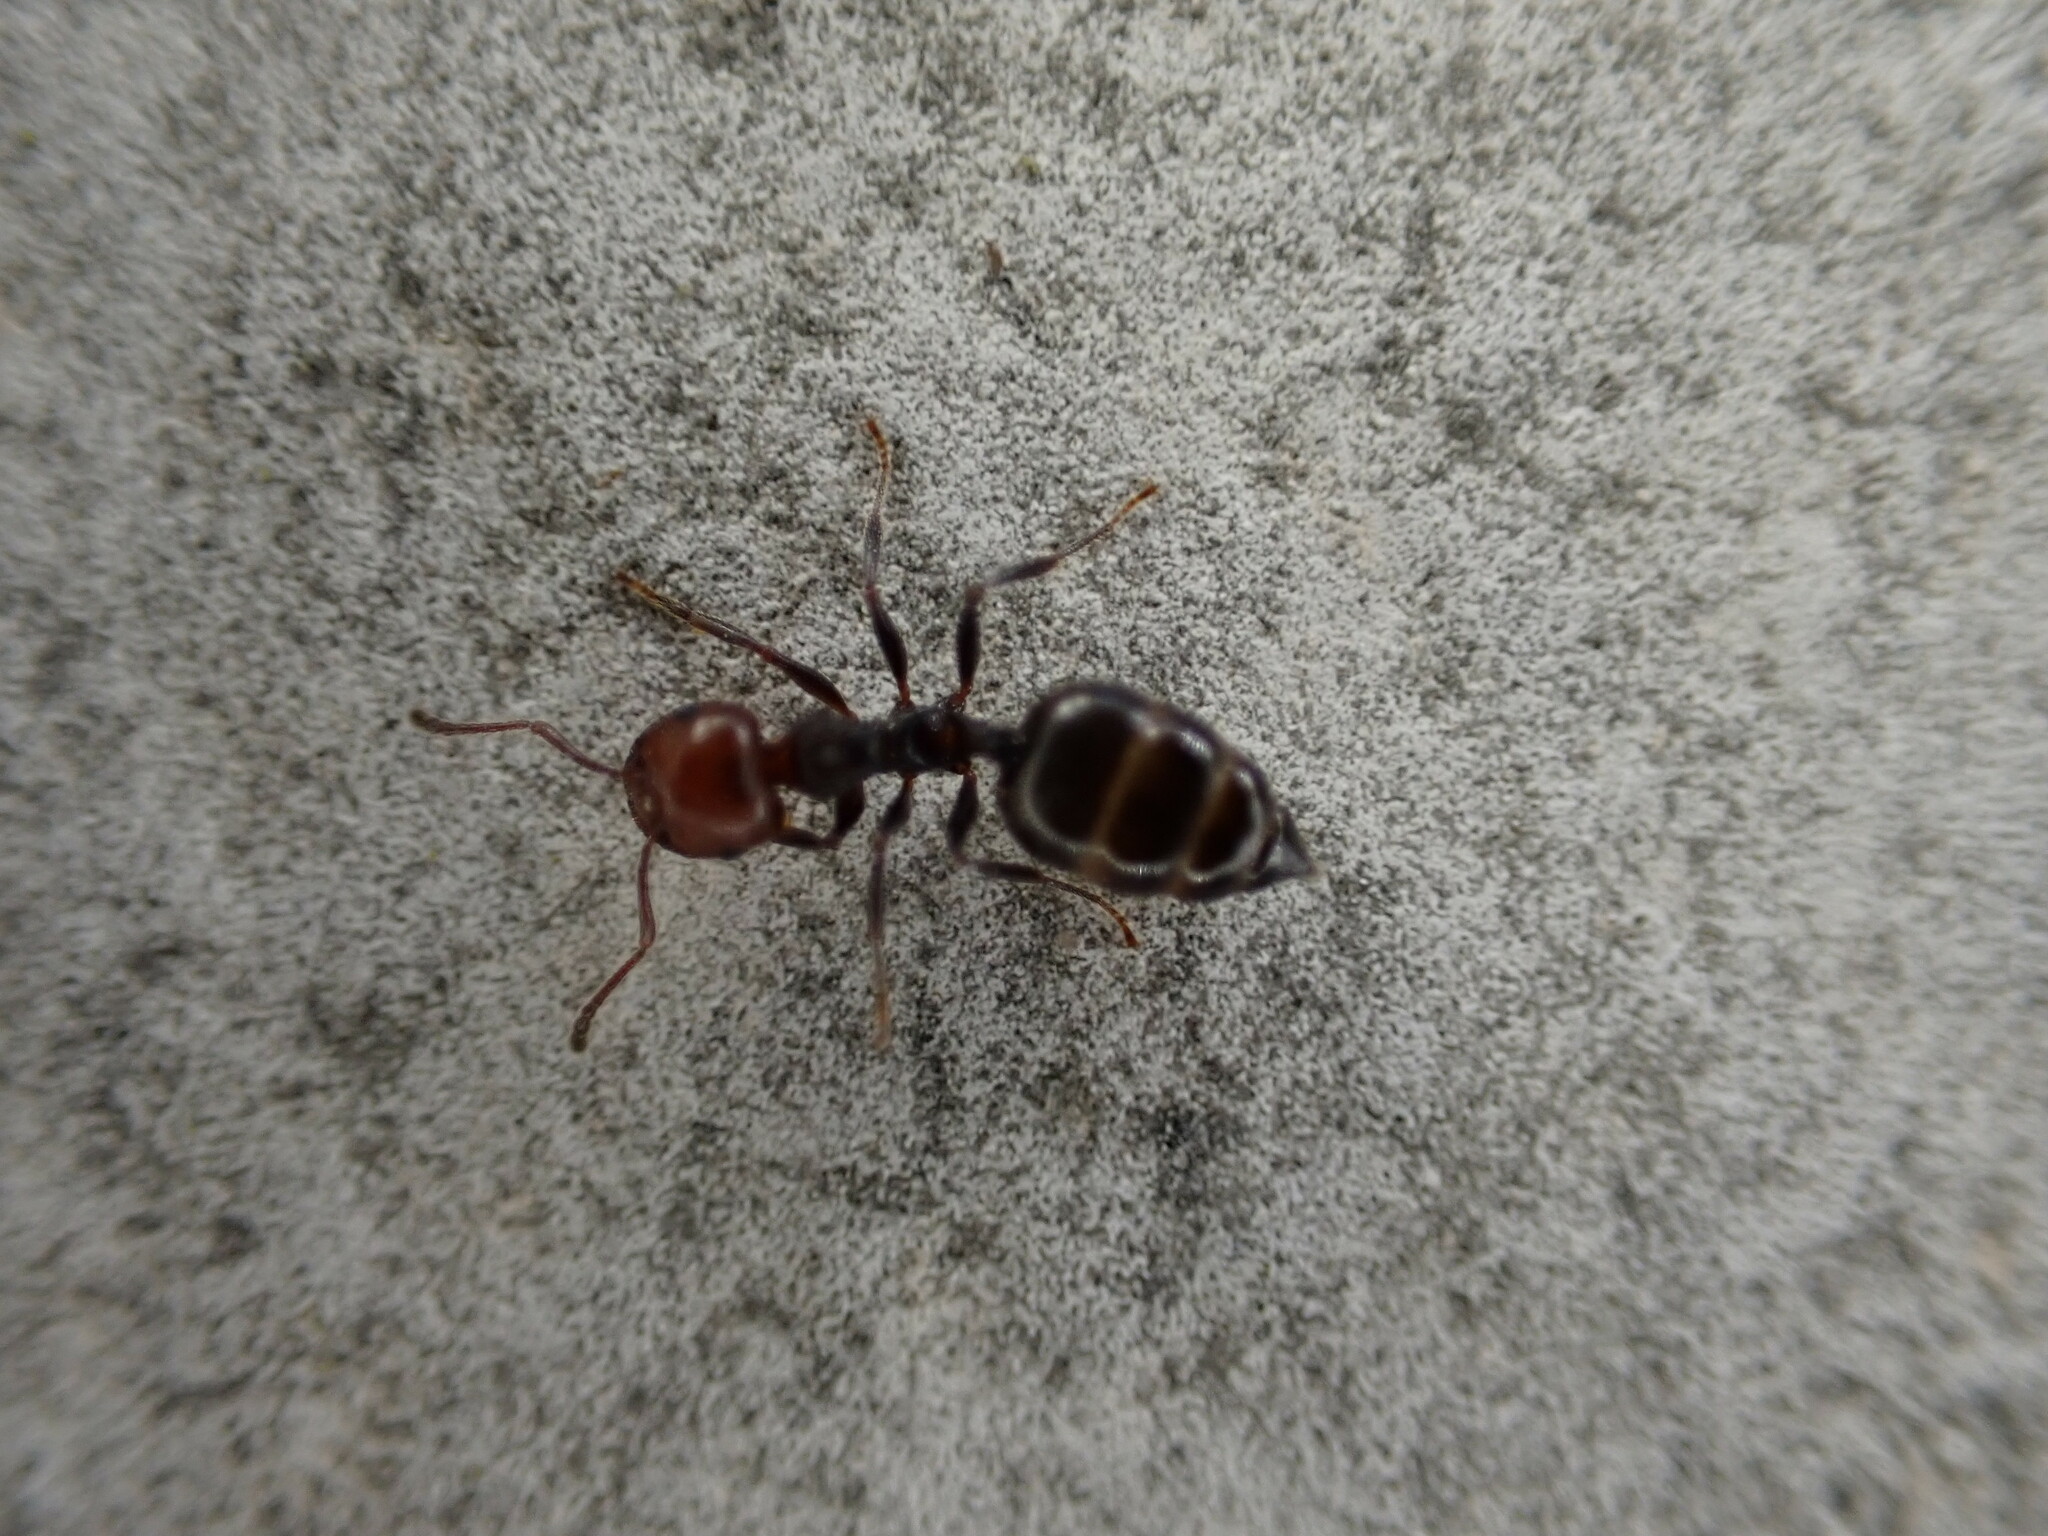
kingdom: Animalia
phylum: Arthropoda
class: Insecta
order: Hymenoptera
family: Formicidae
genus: Crematogaster
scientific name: Crematogaster scutellaris
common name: Fourmi du liège
